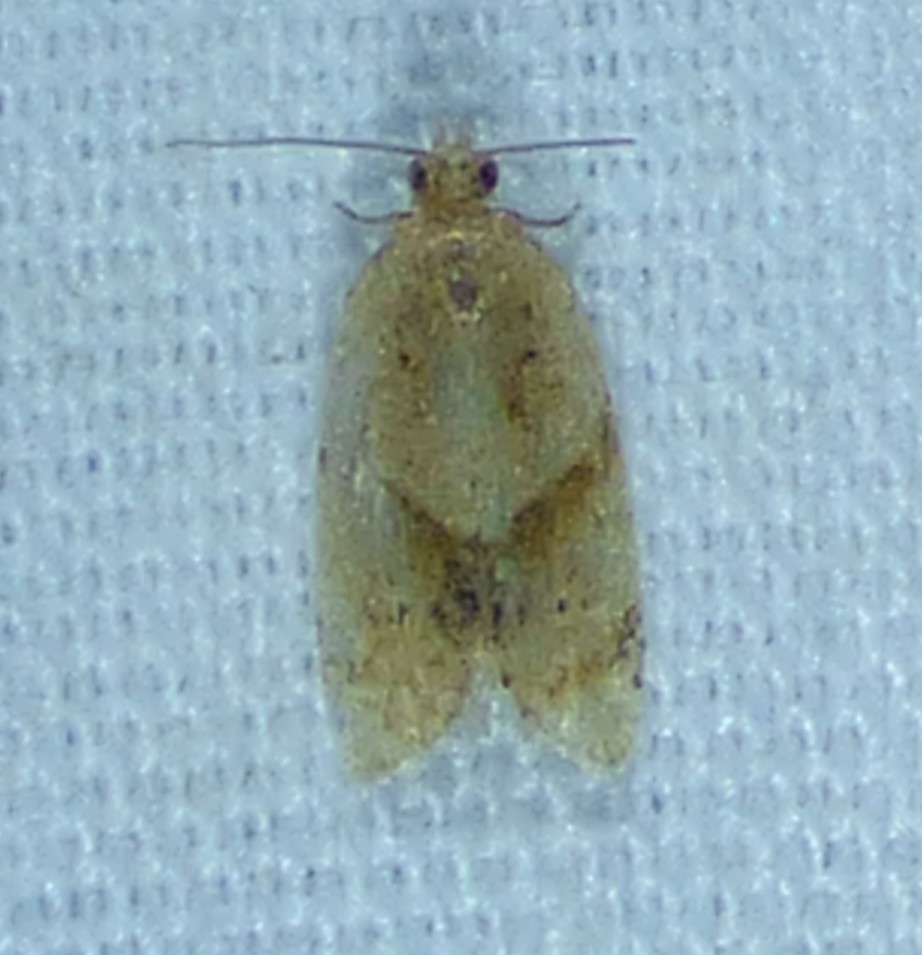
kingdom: Animalia
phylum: Arthropoda
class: Insecta
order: Lepidoptera
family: Tortricidae
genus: Clepsis
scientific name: Clepsis peritana
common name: Garden tortrix
